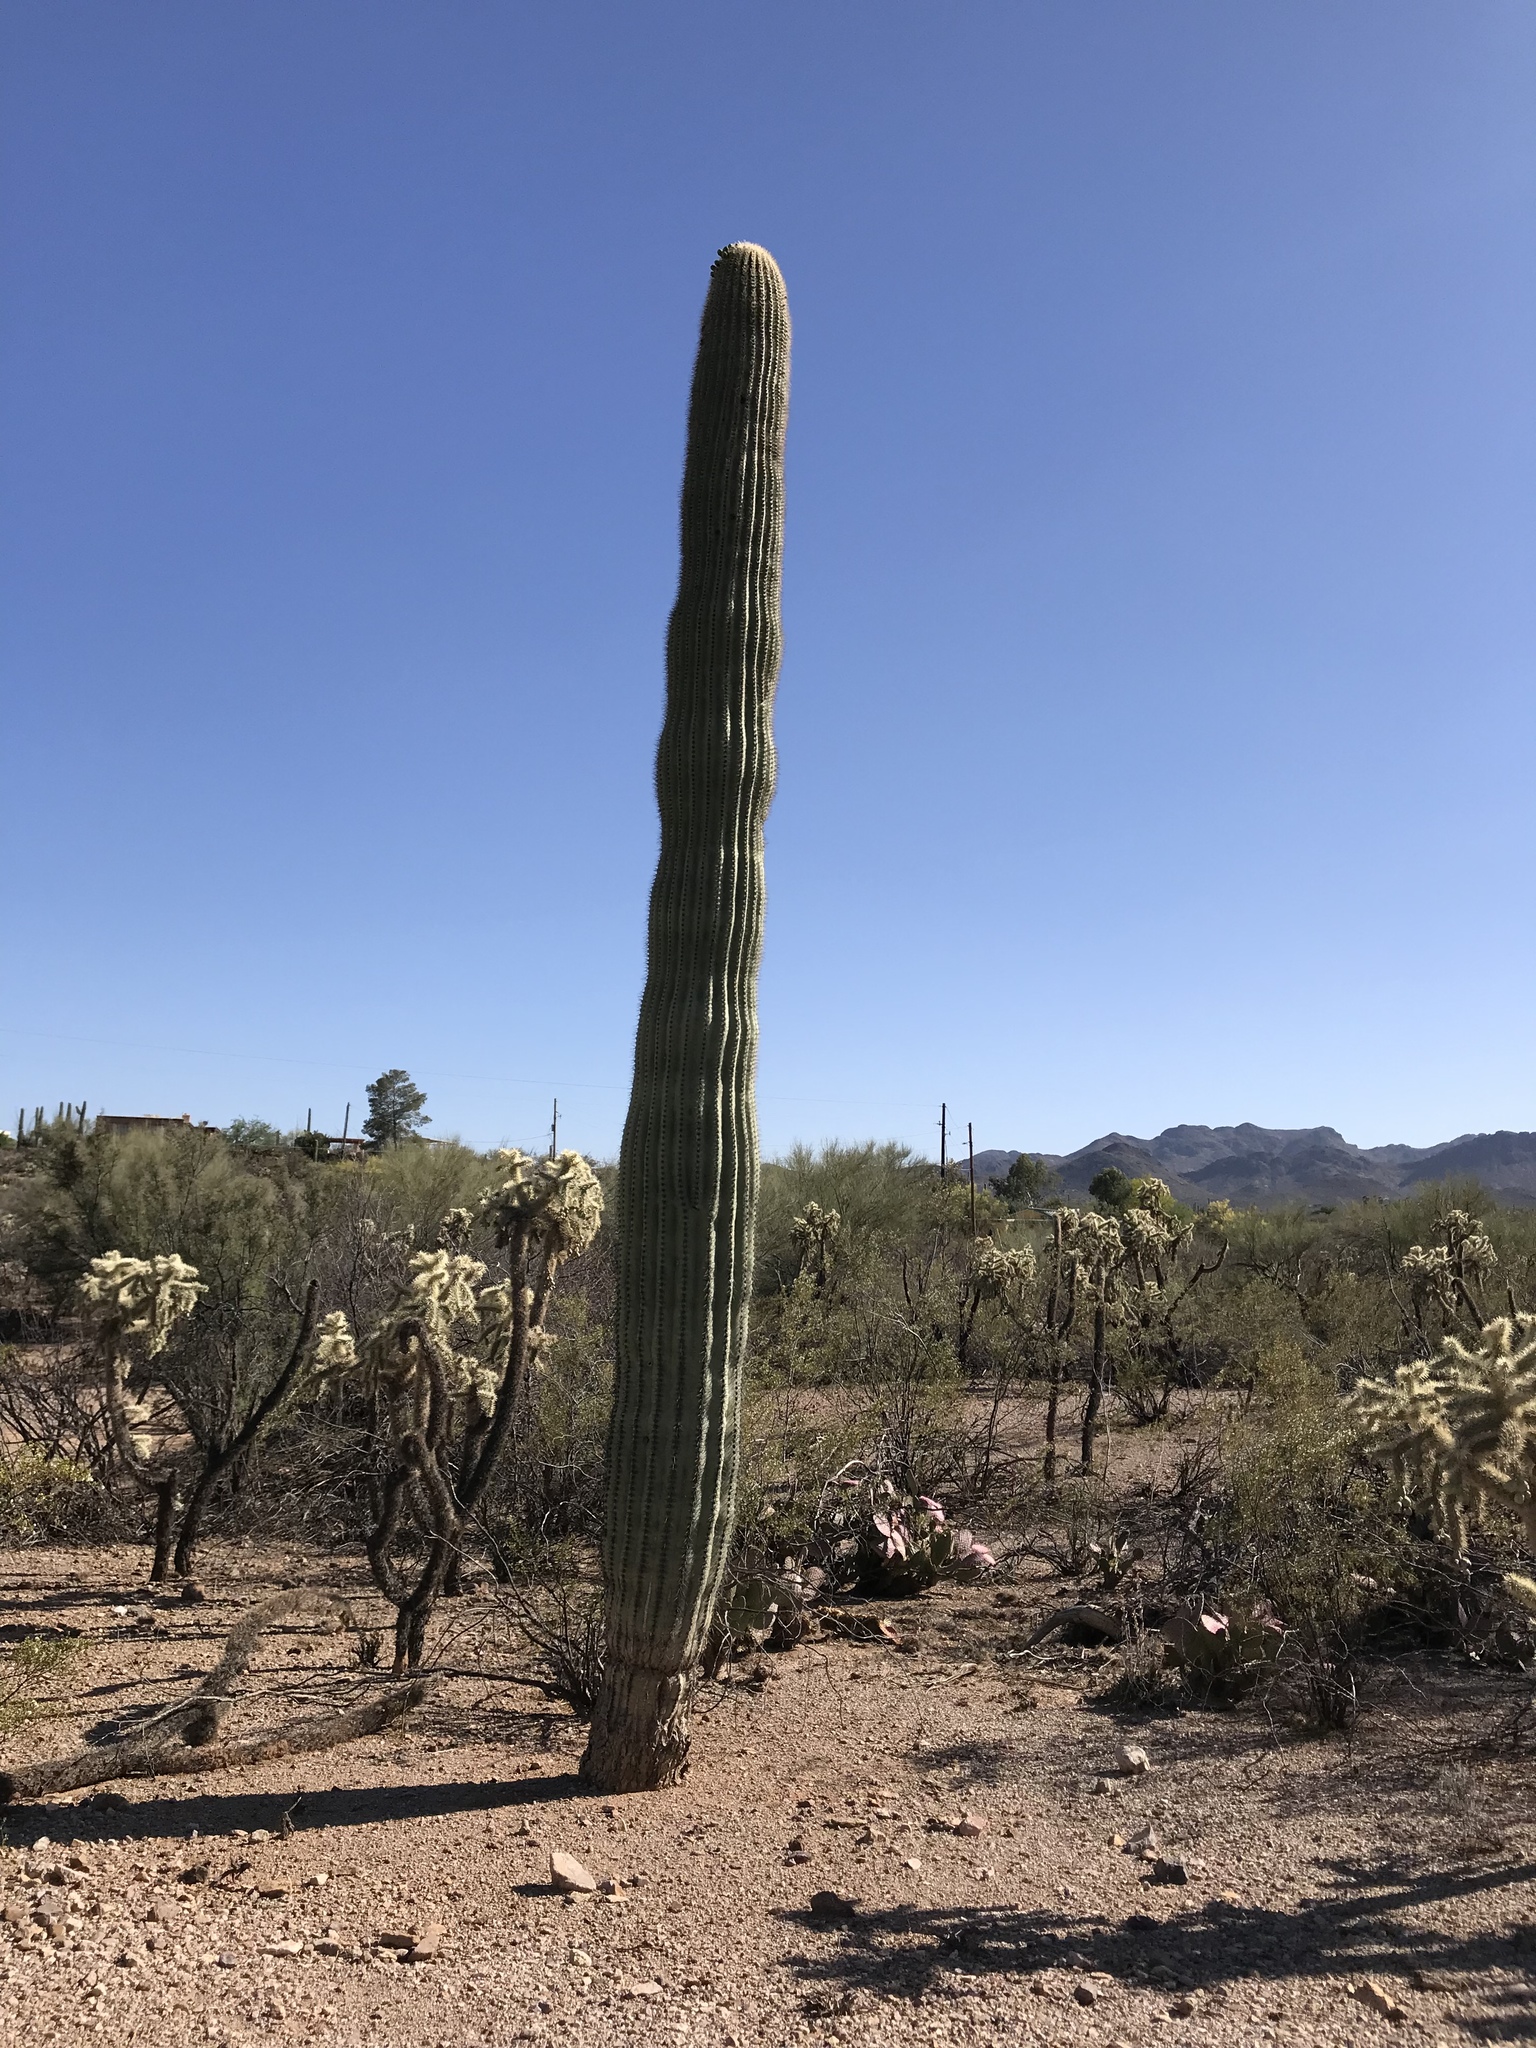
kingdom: Plantae
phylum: Tracheophyta
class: Magnoliopsida
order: Caryophyllales
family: Cactaceae
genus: Carnegiea
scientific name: Carnegiea gigantea
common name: Saguaro
